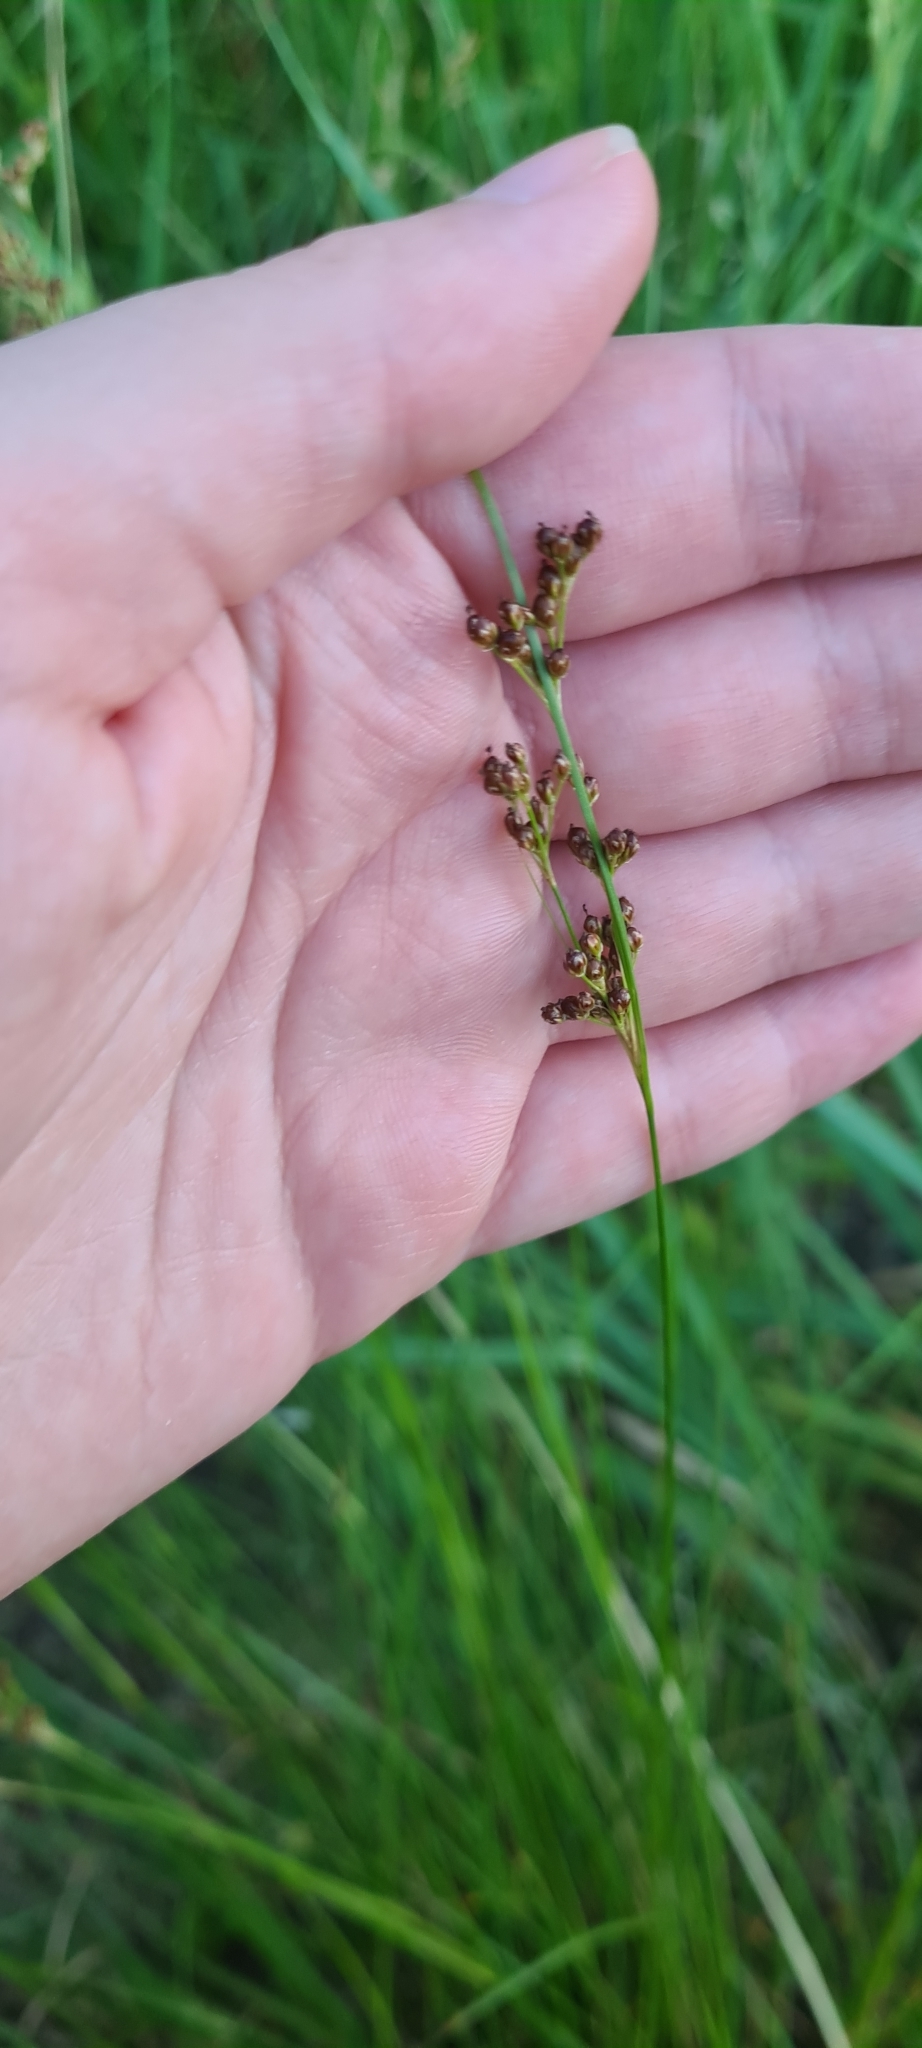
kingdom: Plantae
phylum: Tracheophyta
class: Liliopsida
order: Poales
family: Juncaceae
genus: Juncus
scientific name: Juncus compressus
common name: Round-fruited rush
